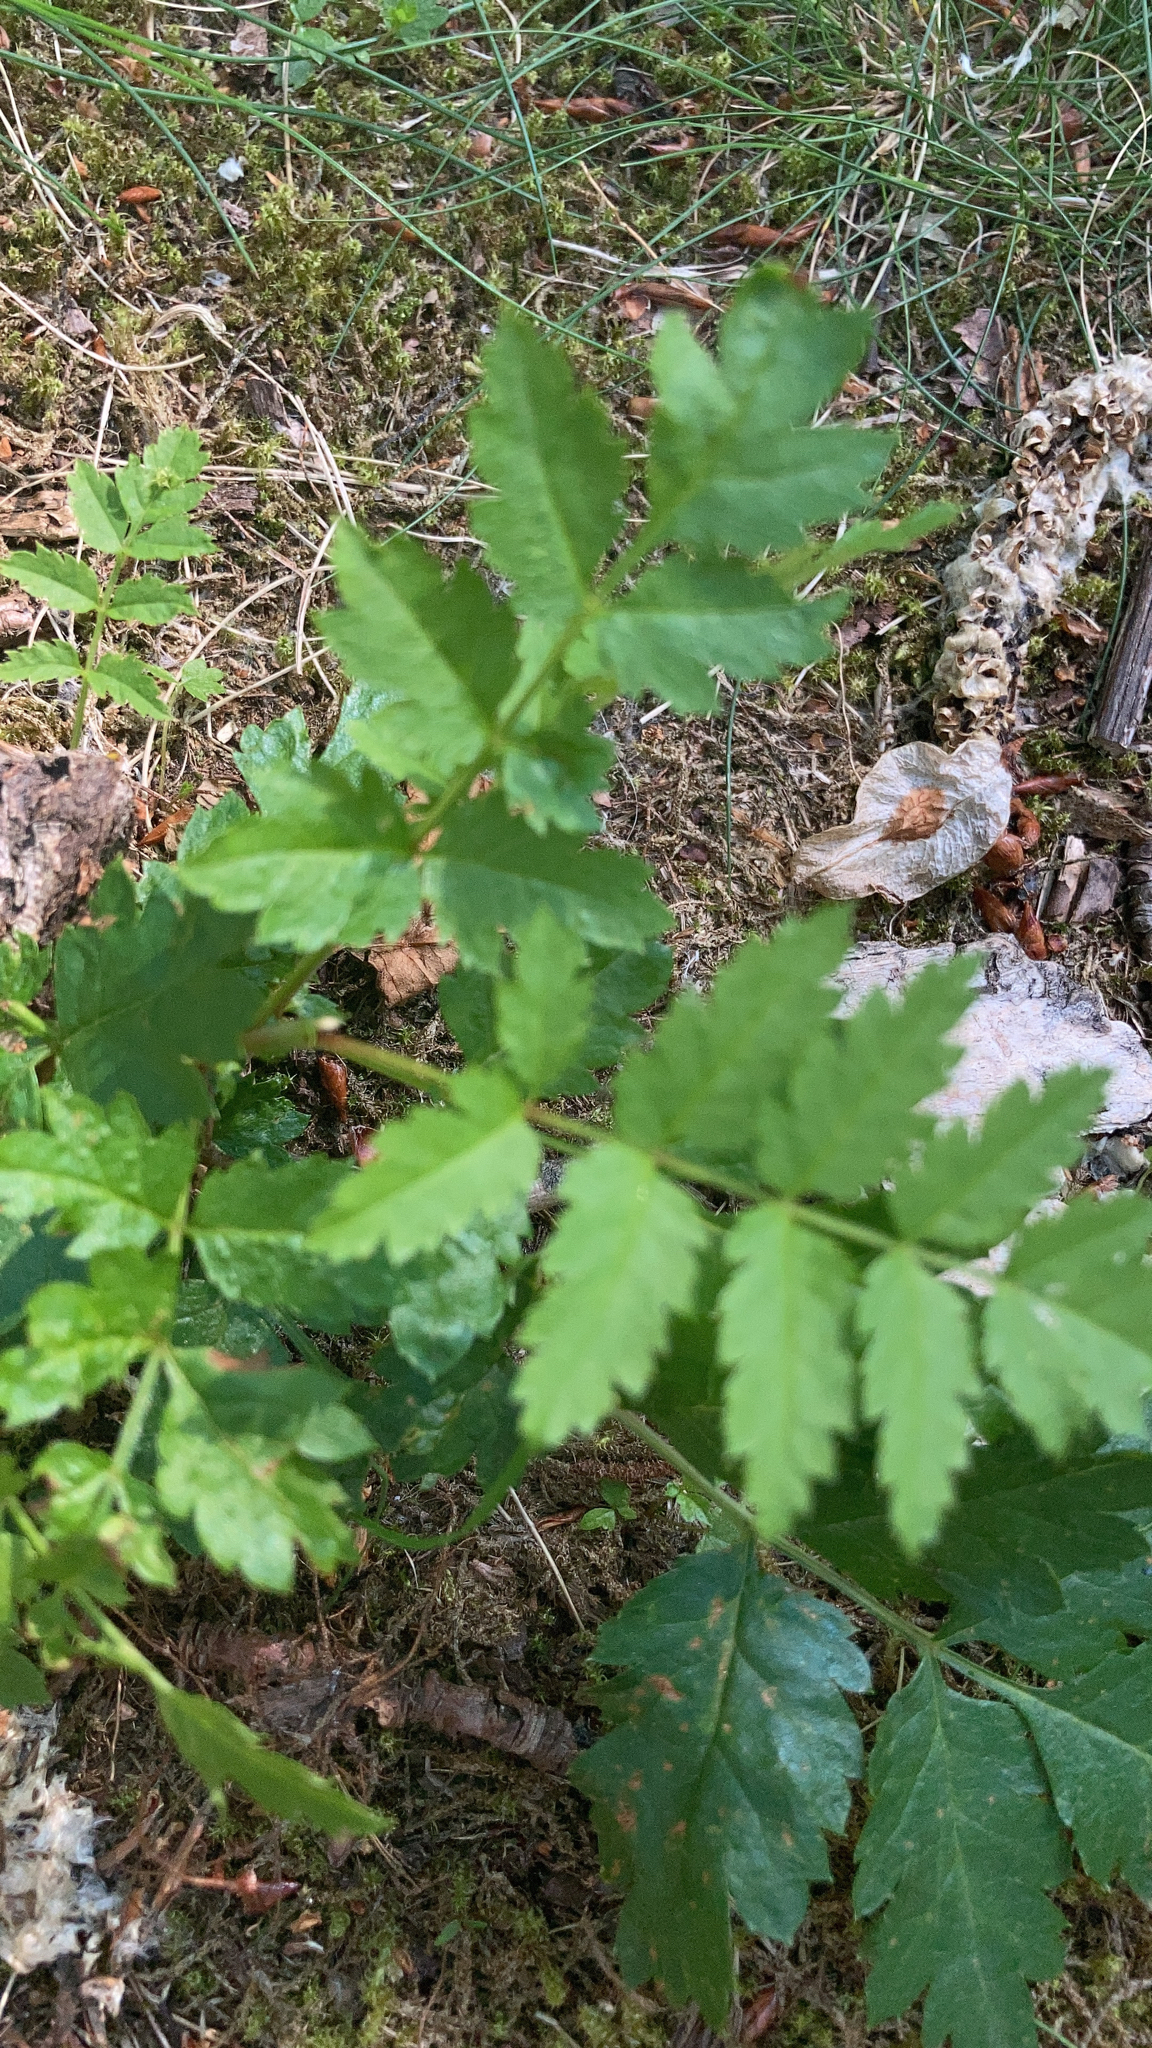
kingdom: Plantae
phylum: Tracheophyta
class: Magnoliopsida
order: Rosales
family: Rosaceae
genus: Sorbus
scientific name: Sorbus aucuparia
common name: Rowan
